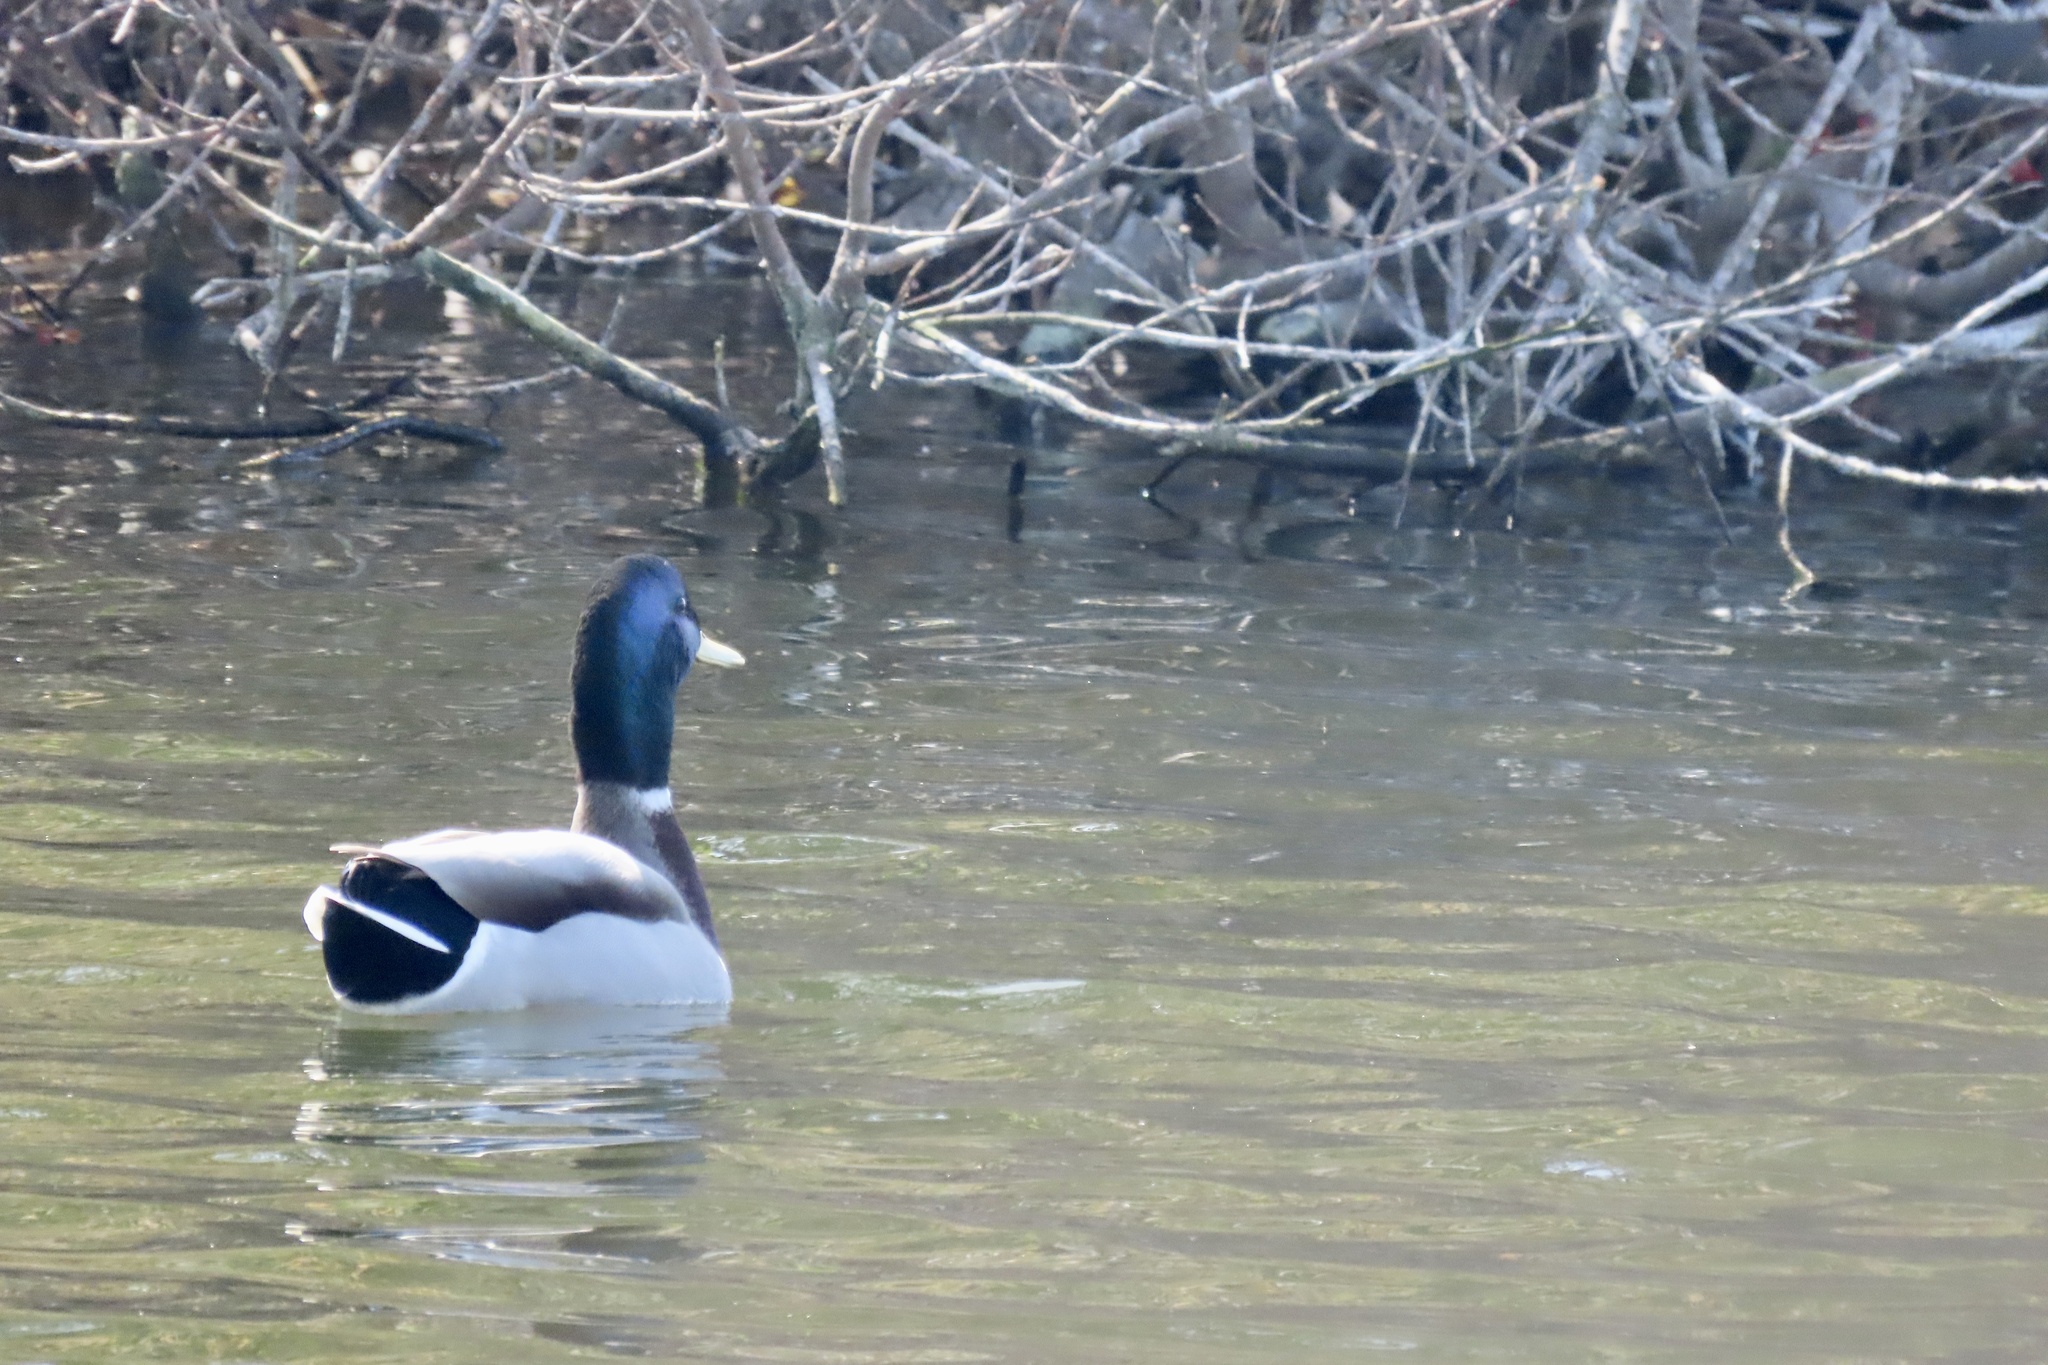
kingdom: Animalia
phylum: Chordata
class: Aves
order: Anseriformes
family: Anatidae
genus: Anas
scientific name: Anas platyrhynchos
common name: Mallard
